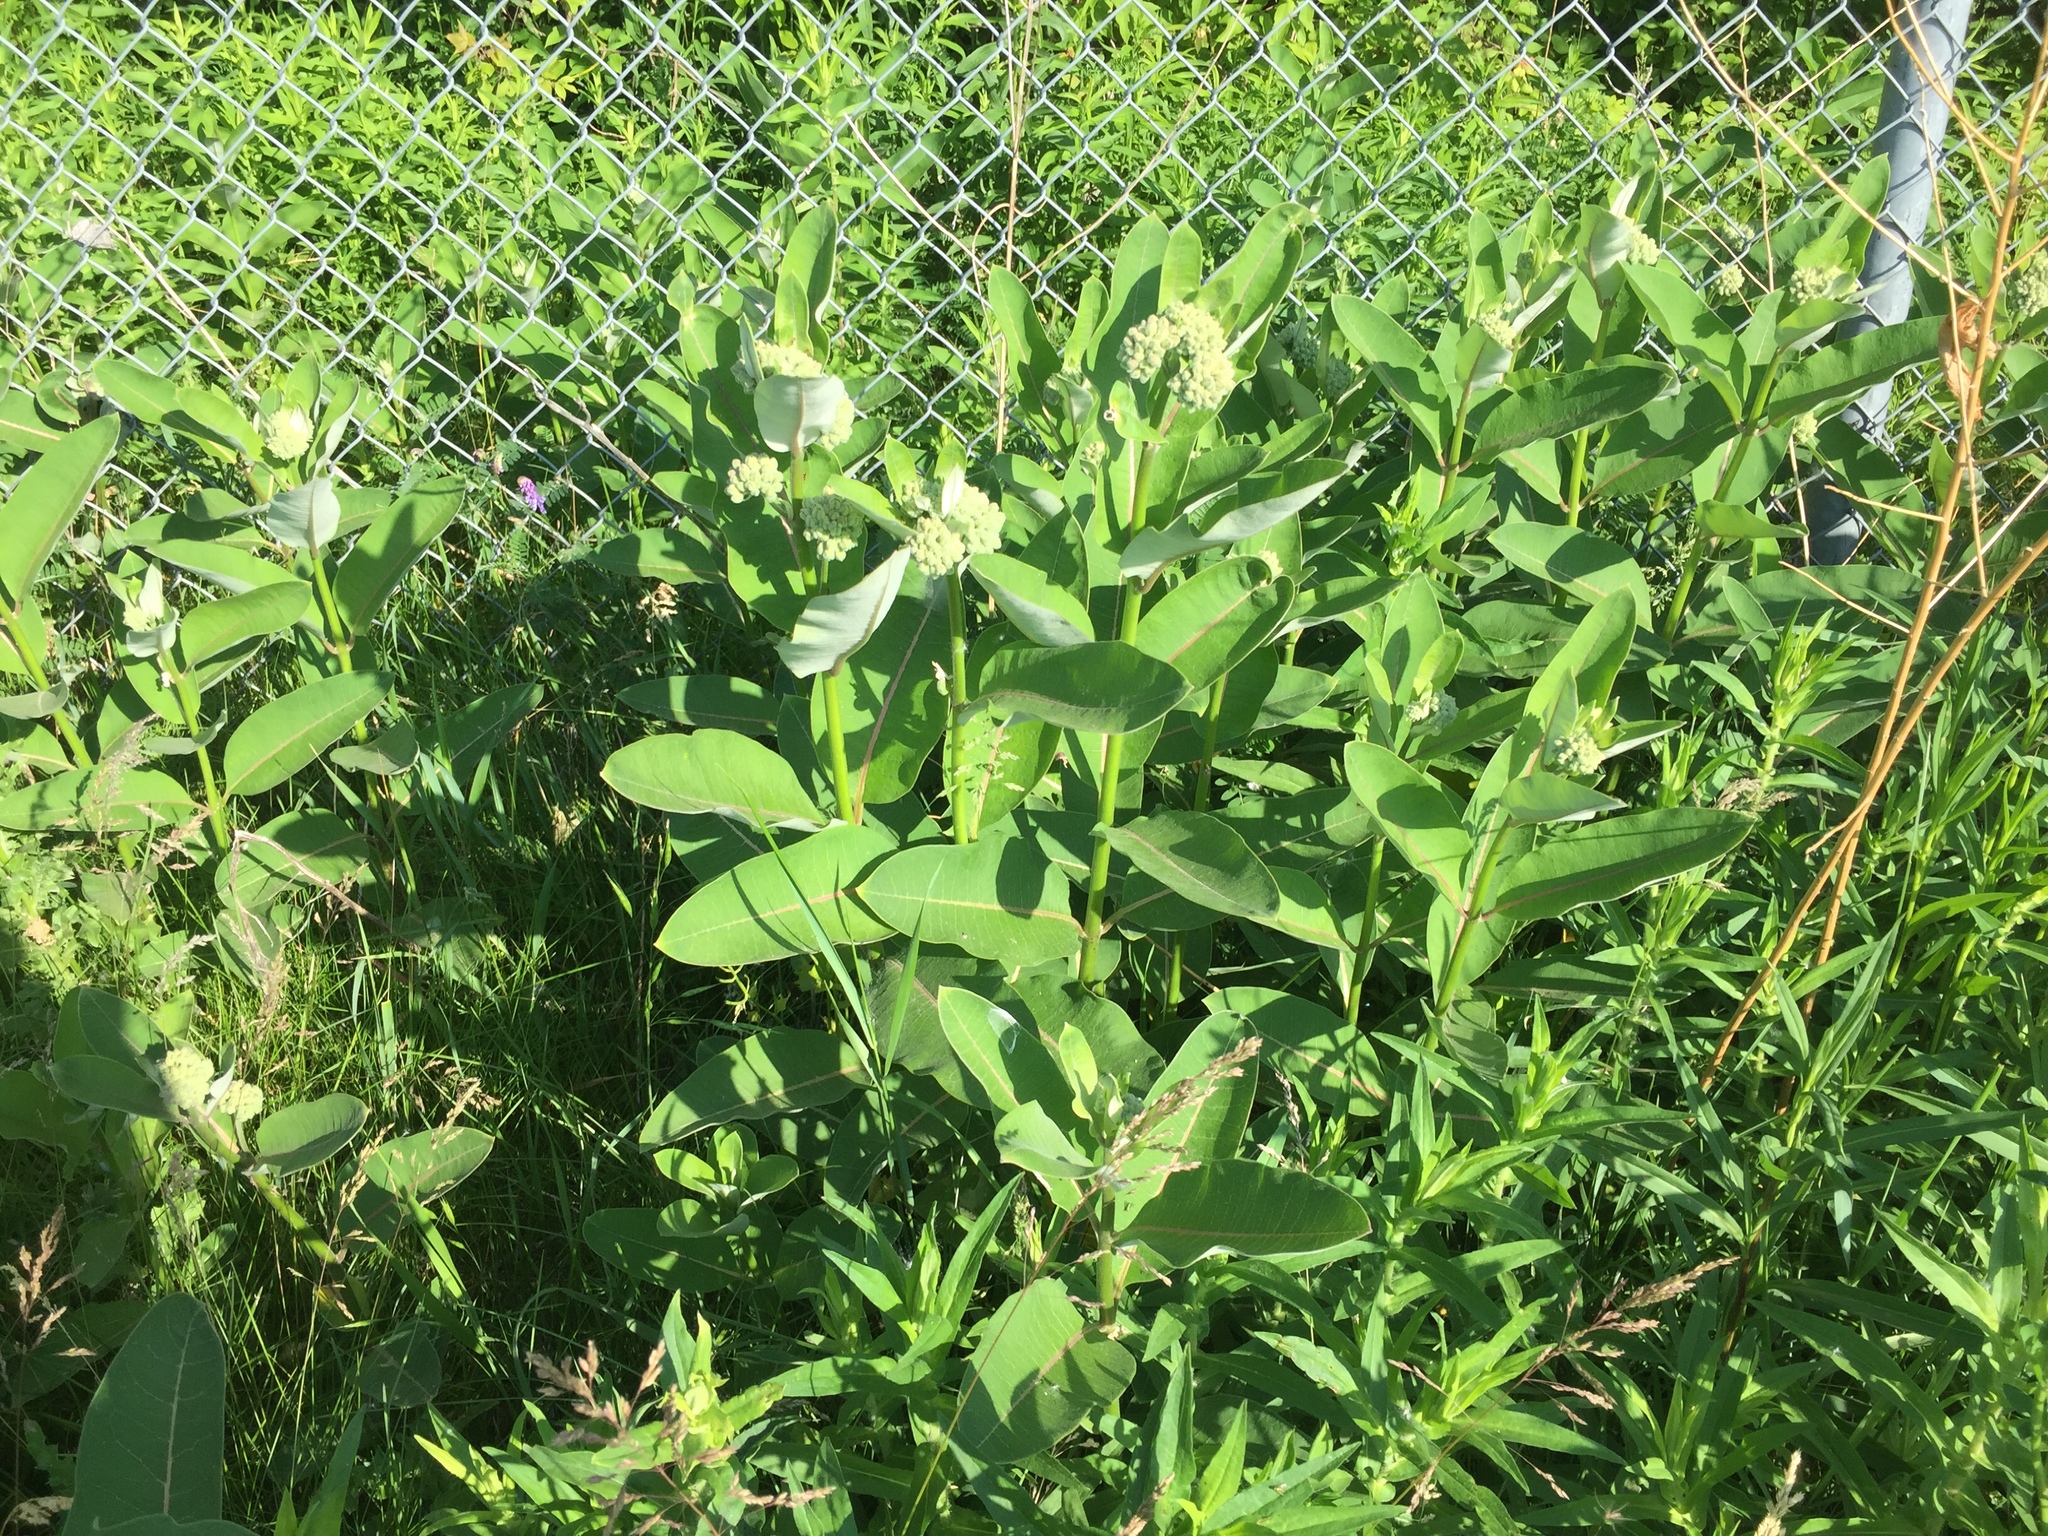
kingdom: Plantae
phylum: Tracheophyta
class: Magnoliopsida
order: Gentianales
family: Apocynaceae
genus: Asclepias
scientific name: Asclepias syriaca
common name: Common milkweed
